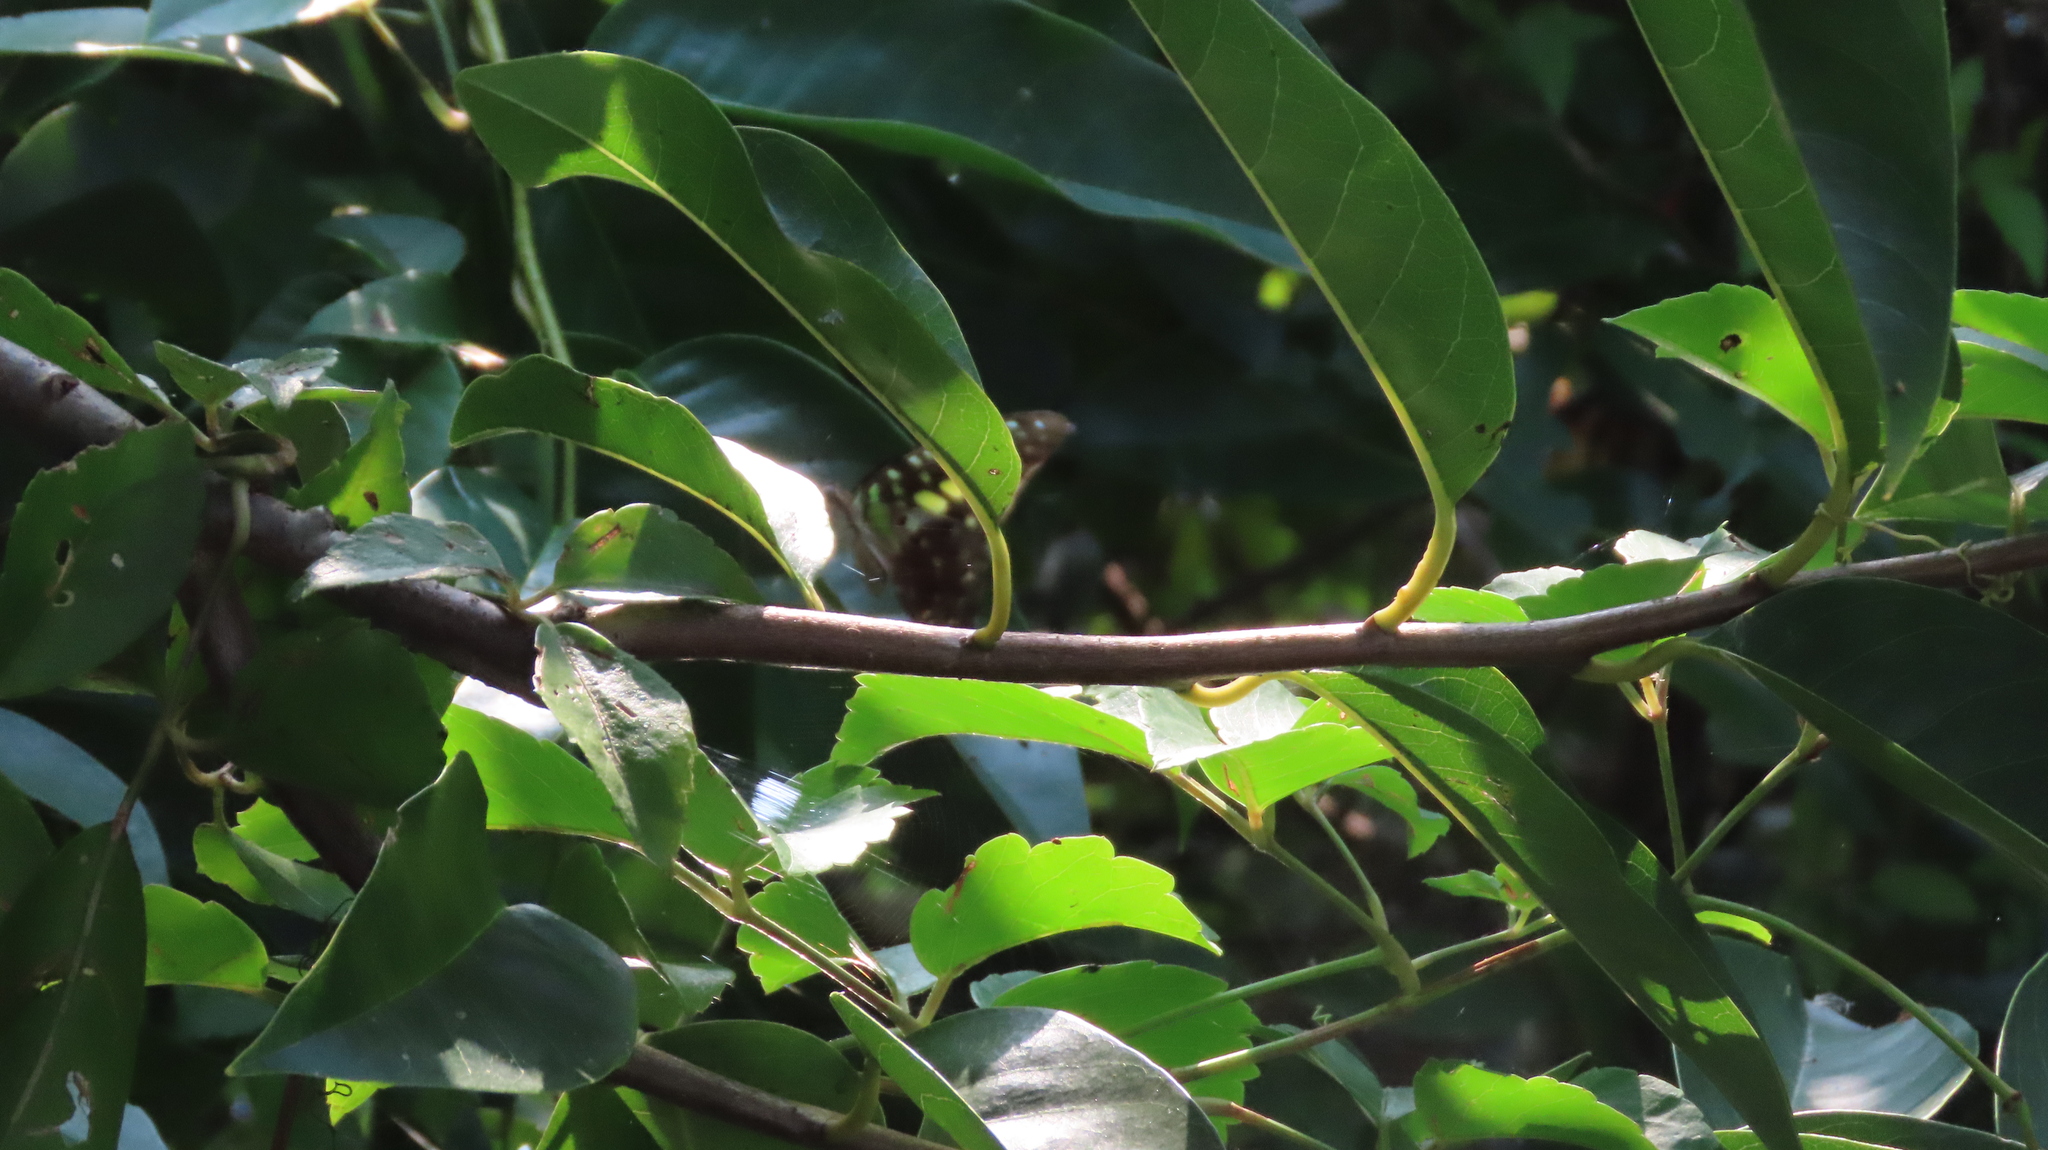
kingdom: Animalia
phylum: Arthropoda
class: Insecta
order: Lepidoptera
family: Papilionidae
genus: Graphium
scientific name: Graphium agamemnon
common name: Tailed jay
